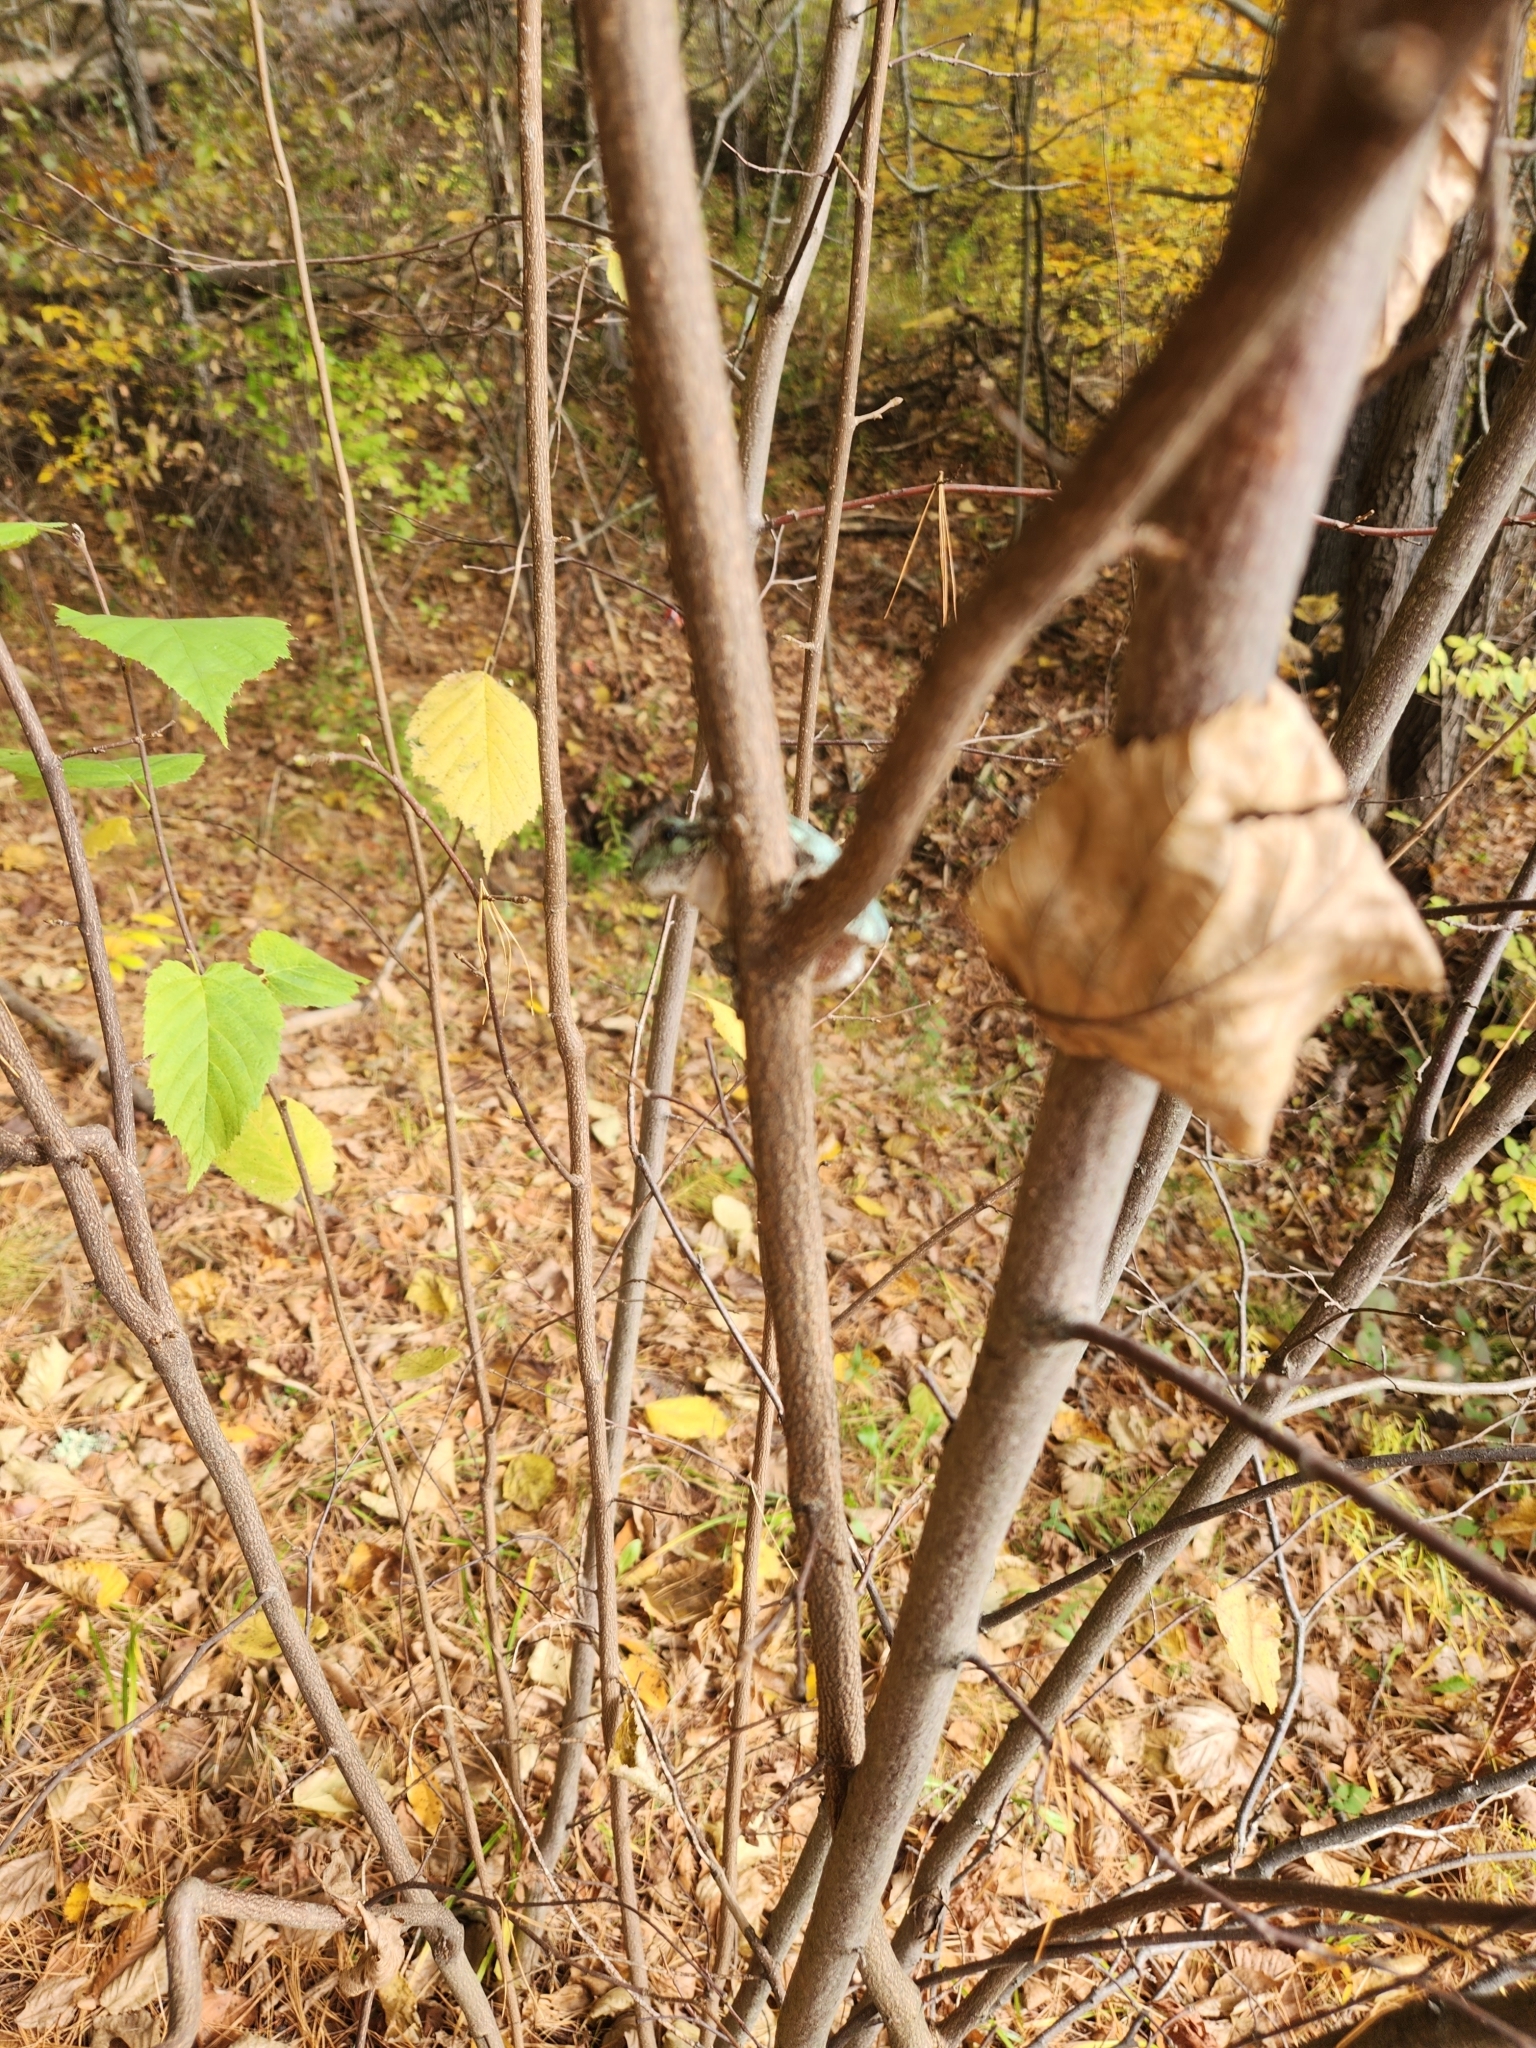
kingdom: Animalia
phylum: Chordata
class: Amphibia
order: Anura
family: Hylidae
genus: Dryophytes
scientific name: Dryophytes versicolor
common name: Gray treefrog
